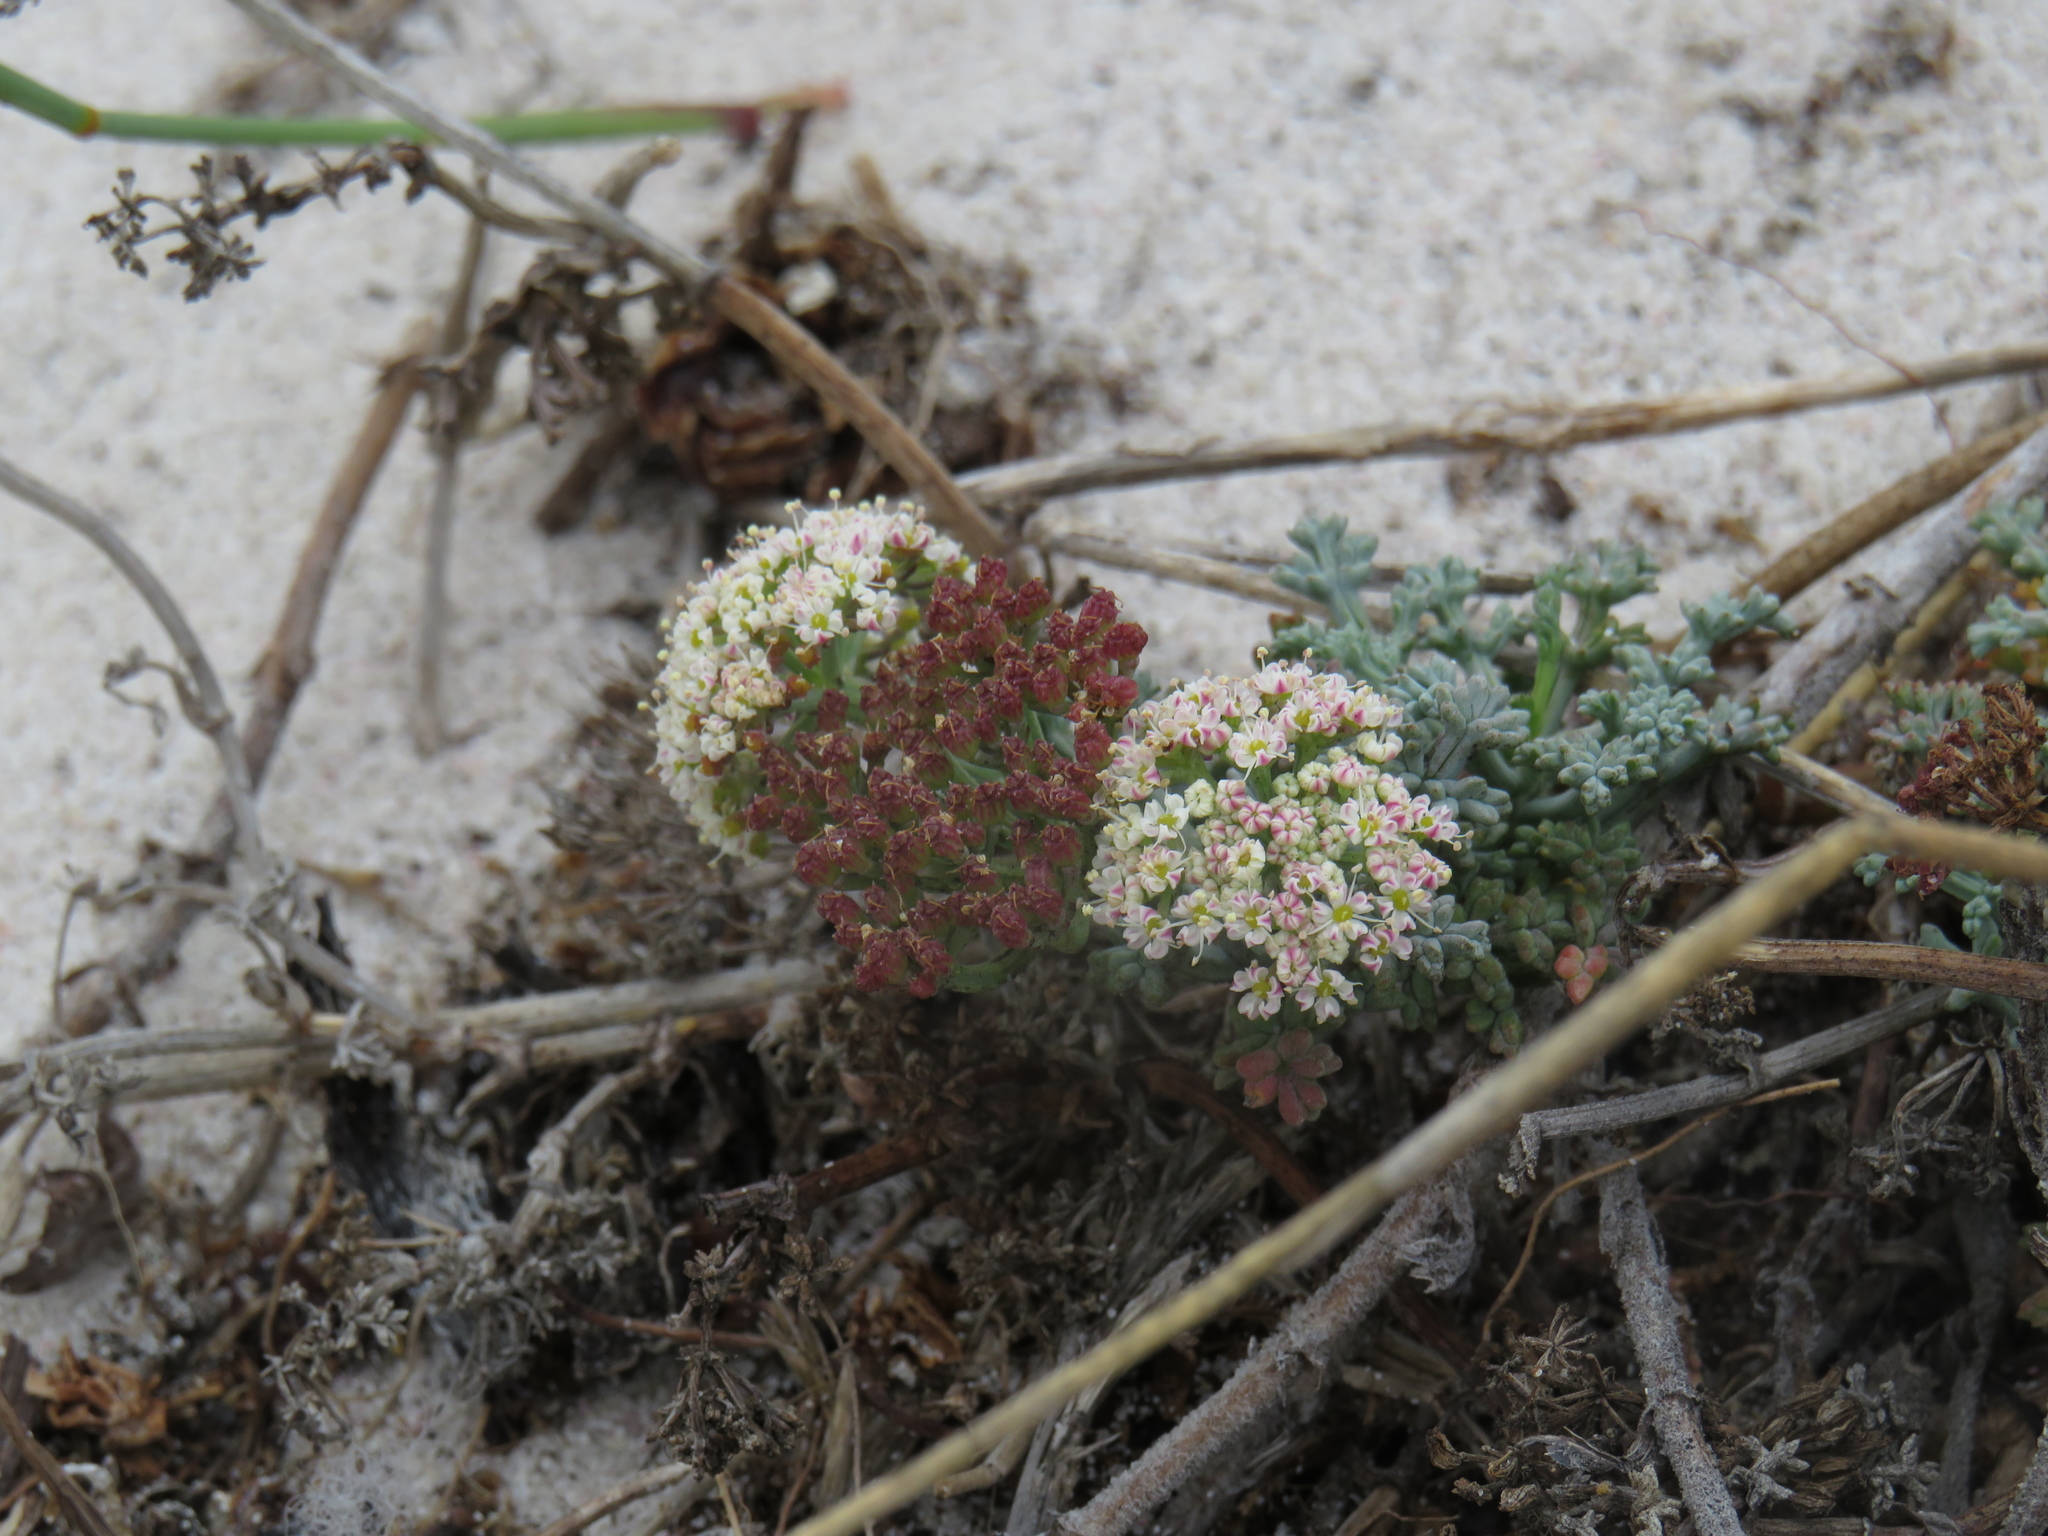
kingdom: Plantae
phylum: Tracheophyta
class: Magnoliopsida
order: Apiales
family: Apiaceae
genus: Dasispermum
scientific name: Dasispermum suffruticosum
